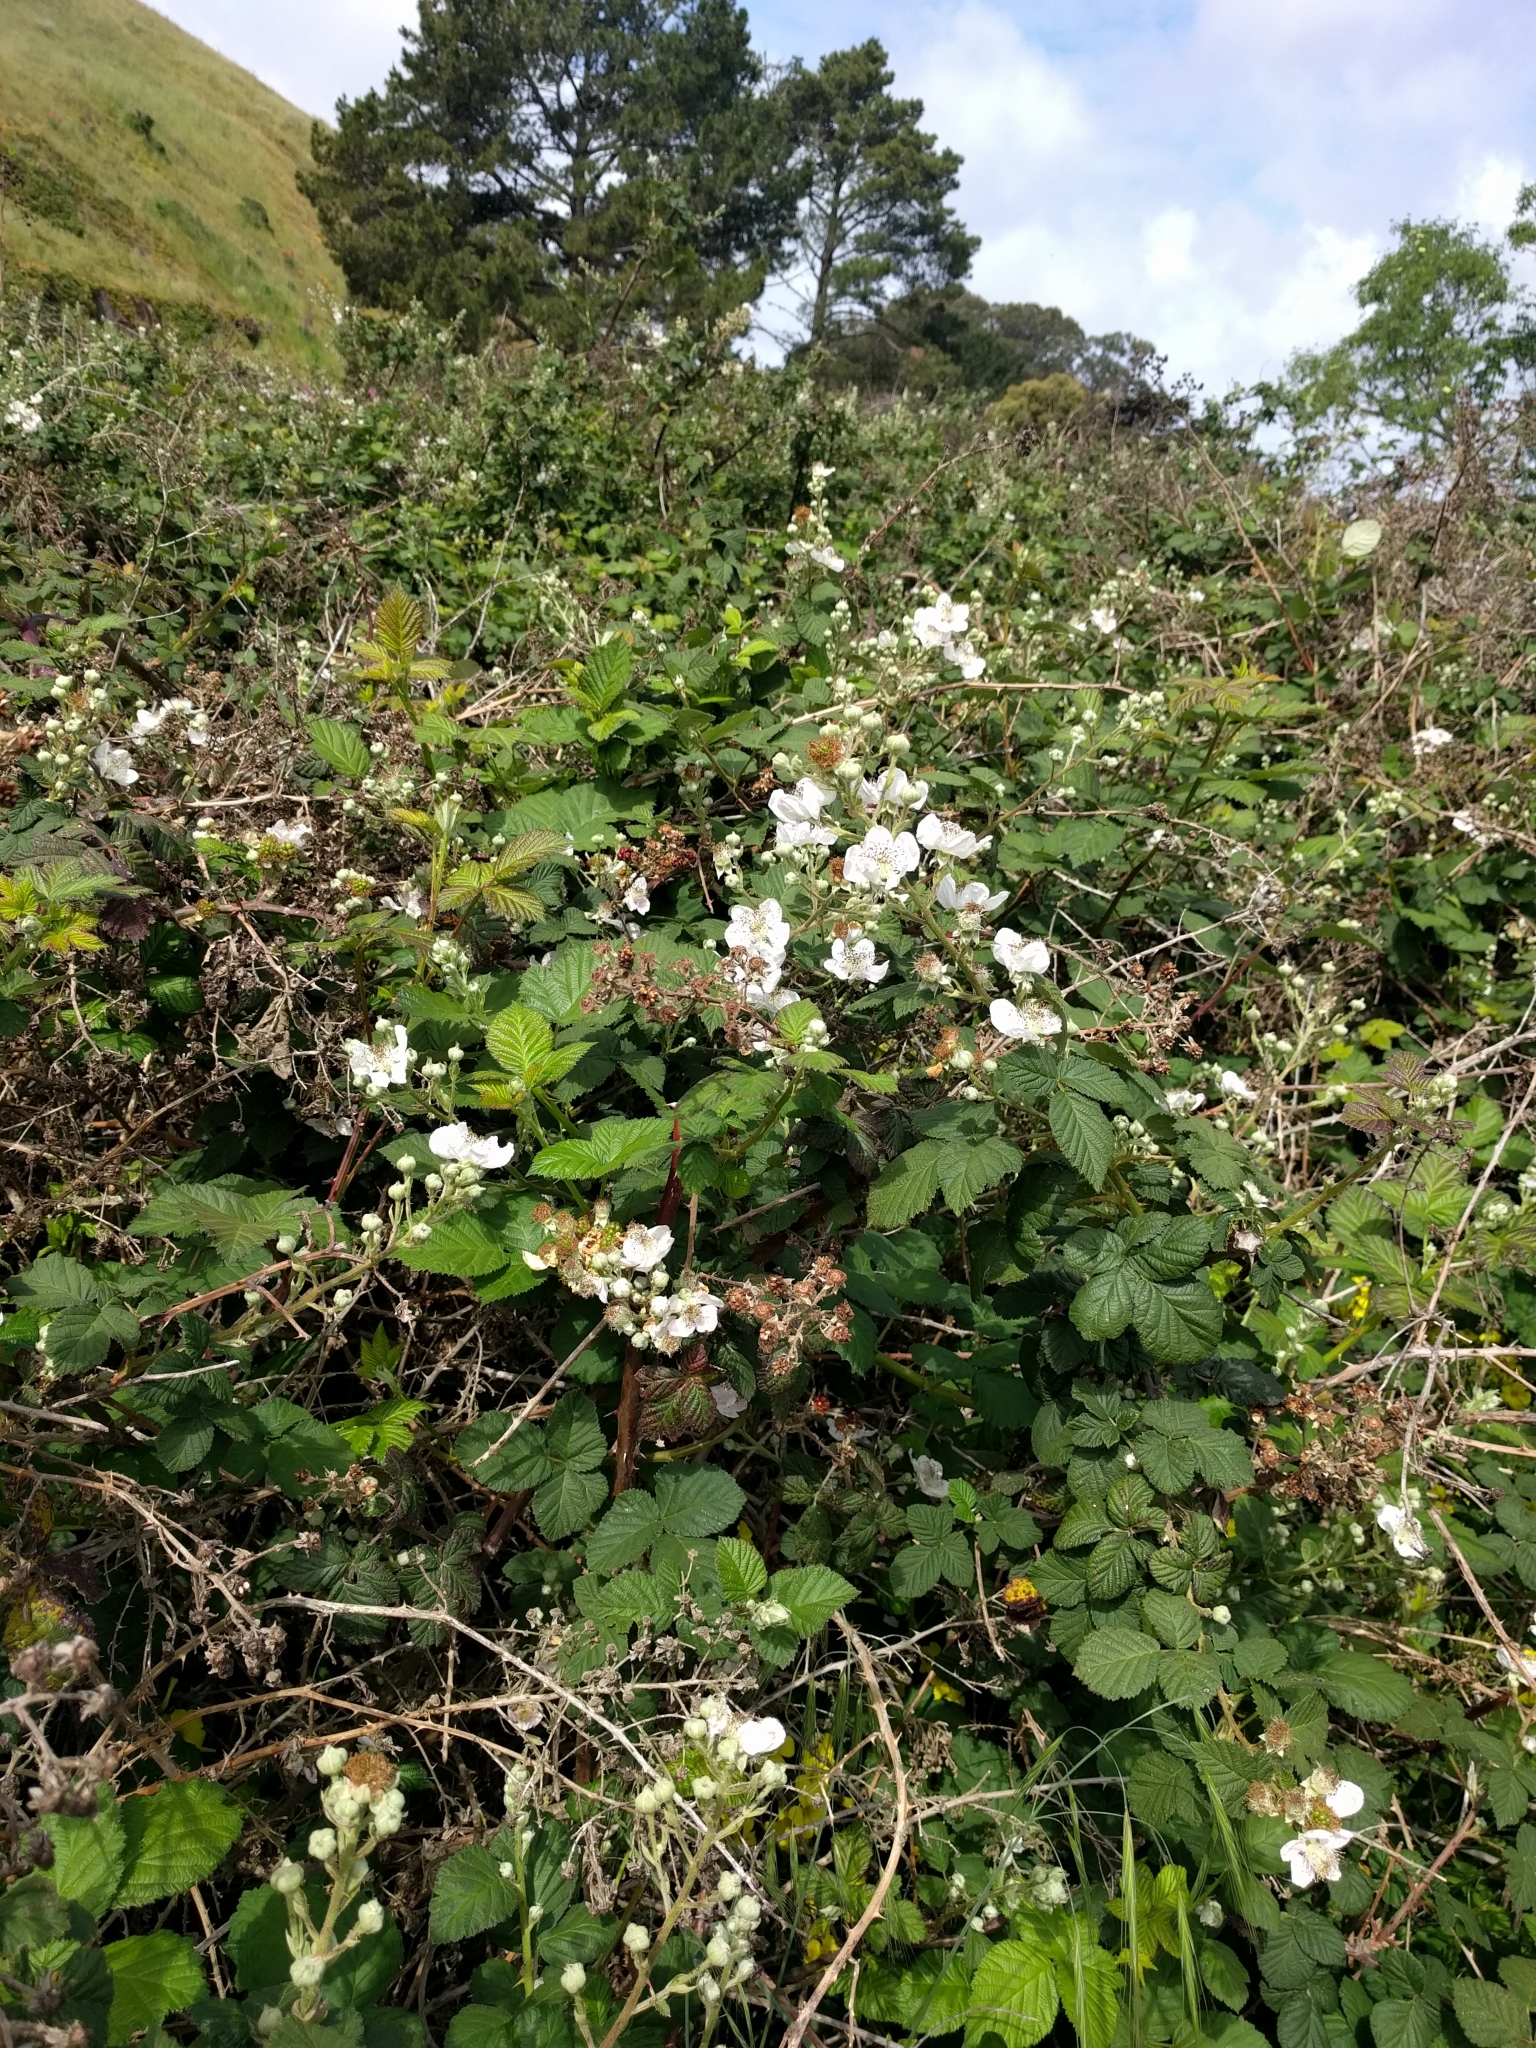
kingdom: Plantae
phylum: Tracheophyta
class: Magnoliopsida
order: Rosales
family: Rosaceae
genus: Rubus
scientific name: Rubus ursinus
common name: Pacific blackberry
